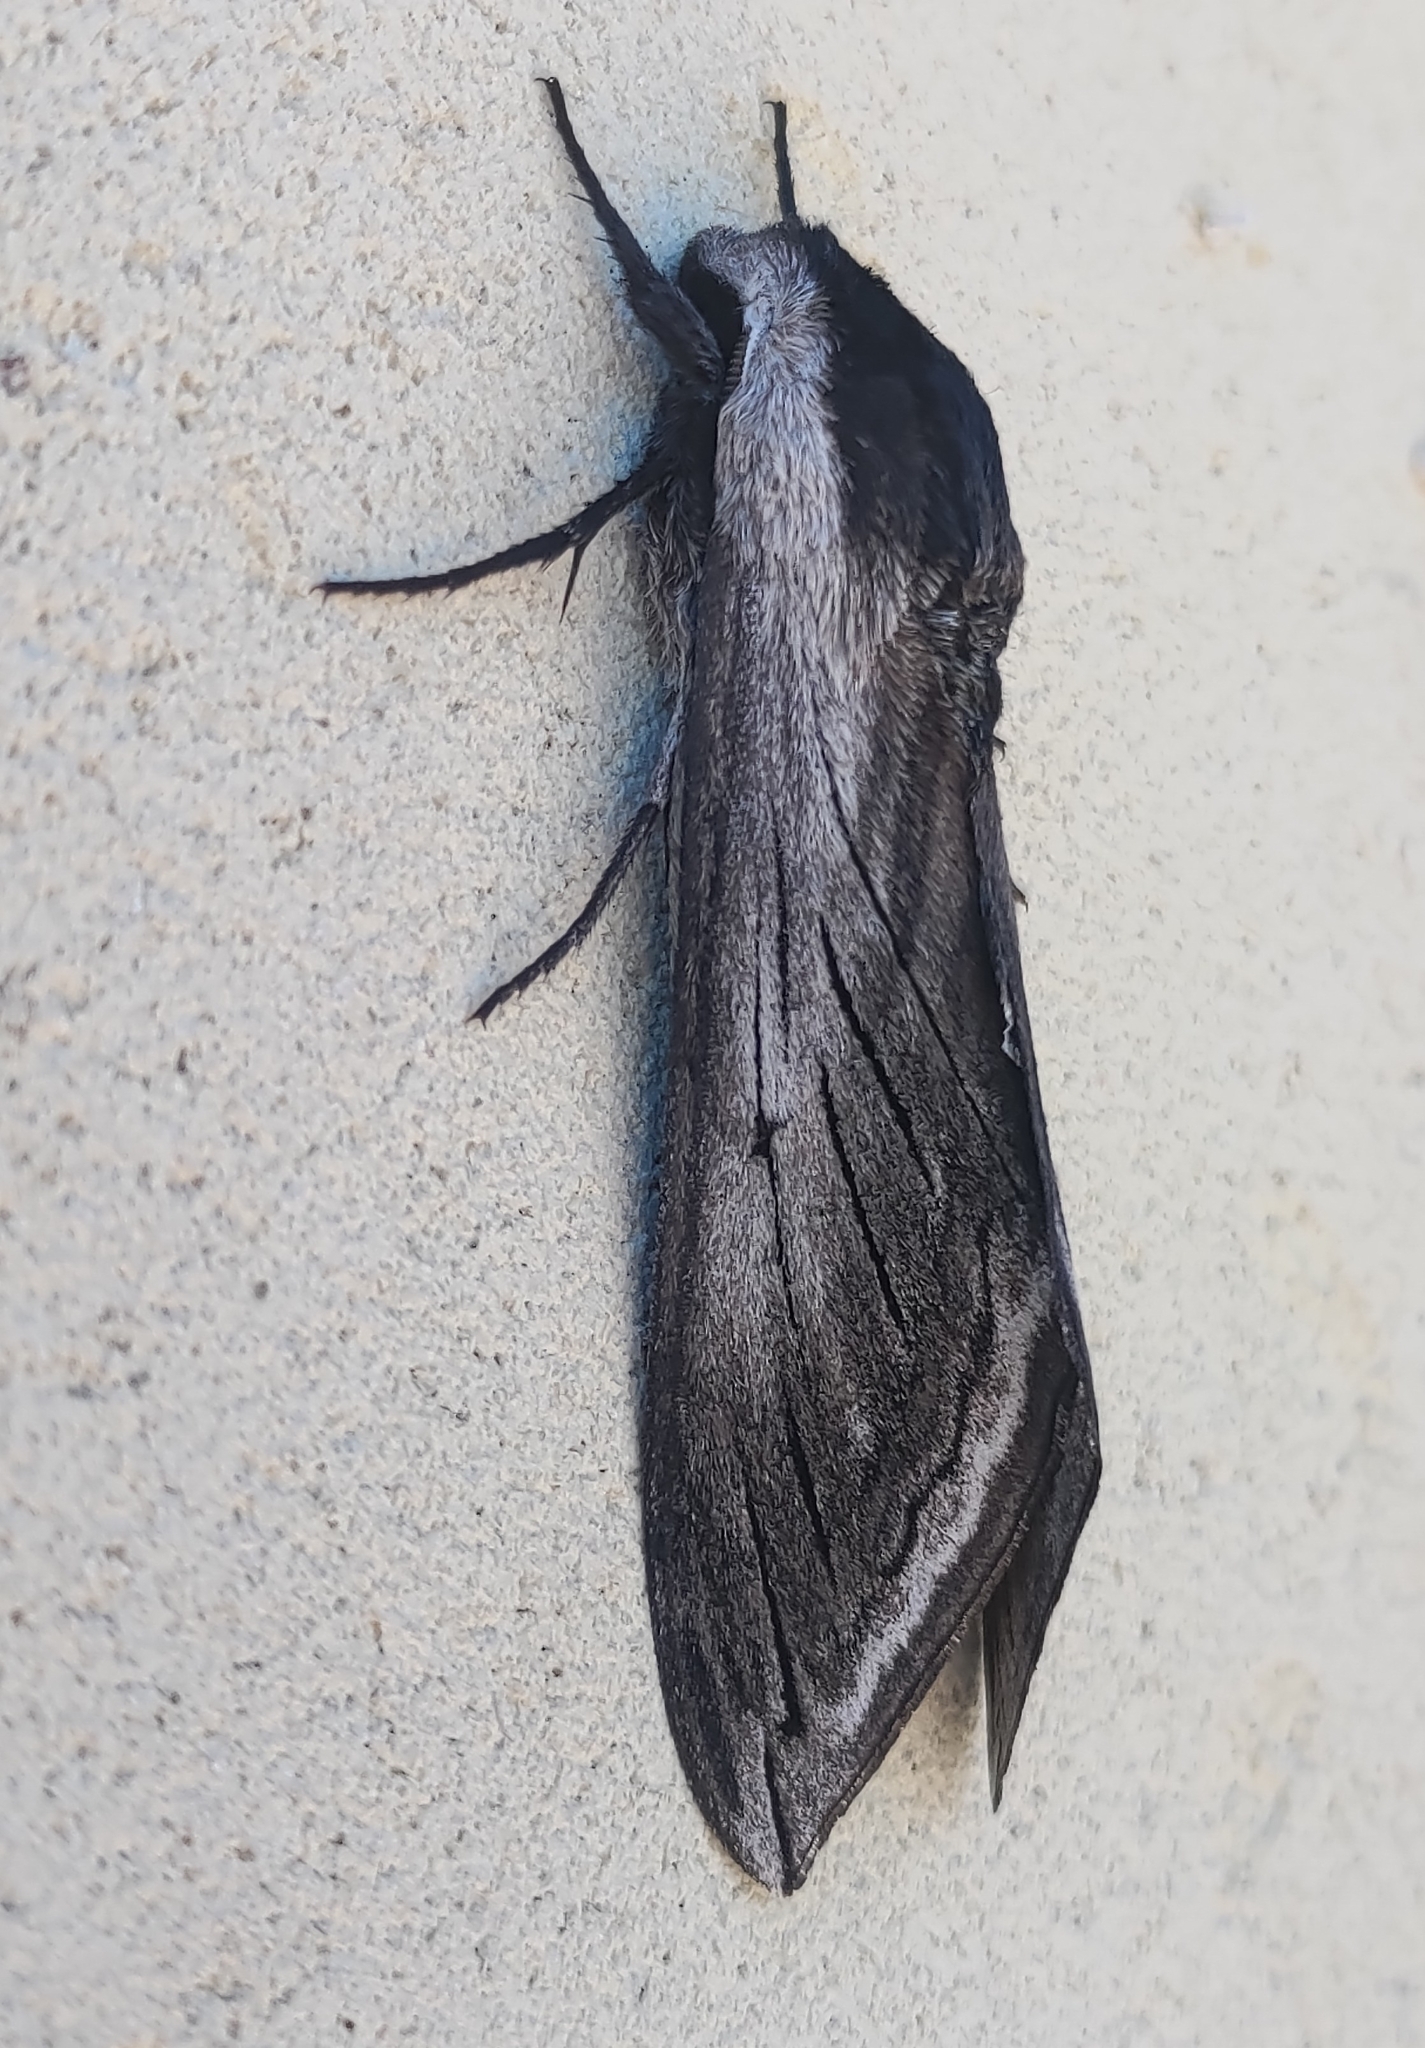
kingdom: Animalia
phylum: Arthropoda
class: Insecta
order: Lepidoptera
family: Sphingidae
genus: Sphinx
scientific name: Sphinx perelegans
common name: Elegant sphinx
